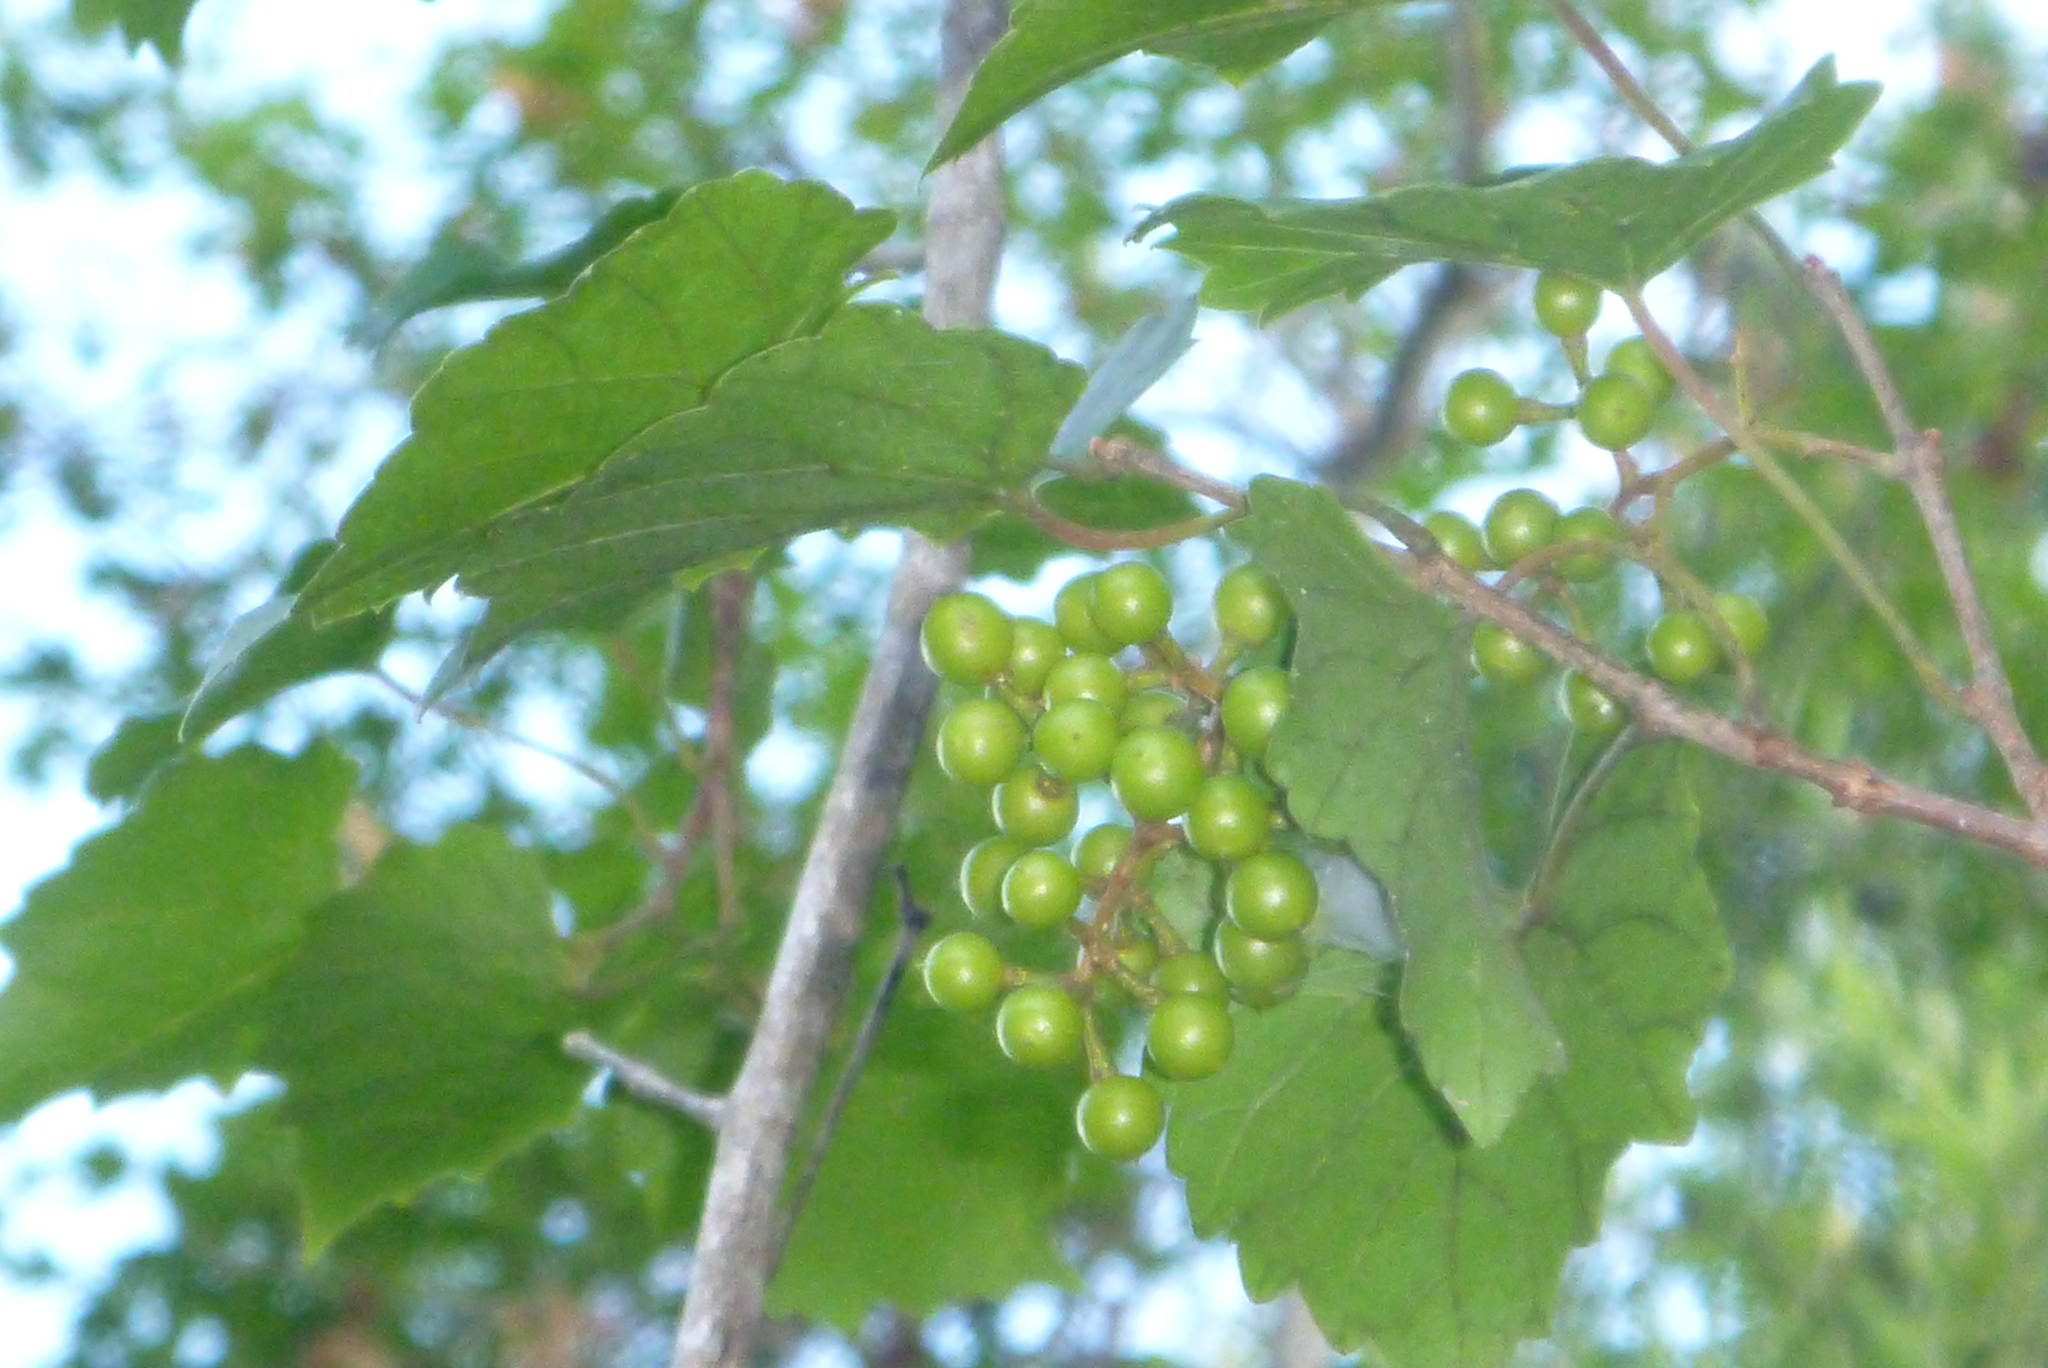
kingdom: Plantae
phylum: Tracheophyta
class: Magnoliopsida
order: Vitales
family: Vitaceae
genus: Vitis
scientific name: Vitis rotundifolia
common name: Muscadine grape
